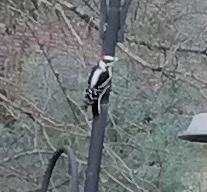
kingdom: Animalia
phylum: Chordata
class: Aves
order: Piciformes
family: Picidae
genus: Dryobates
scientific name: Dryobates pubescens
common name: Downy woodpecker
